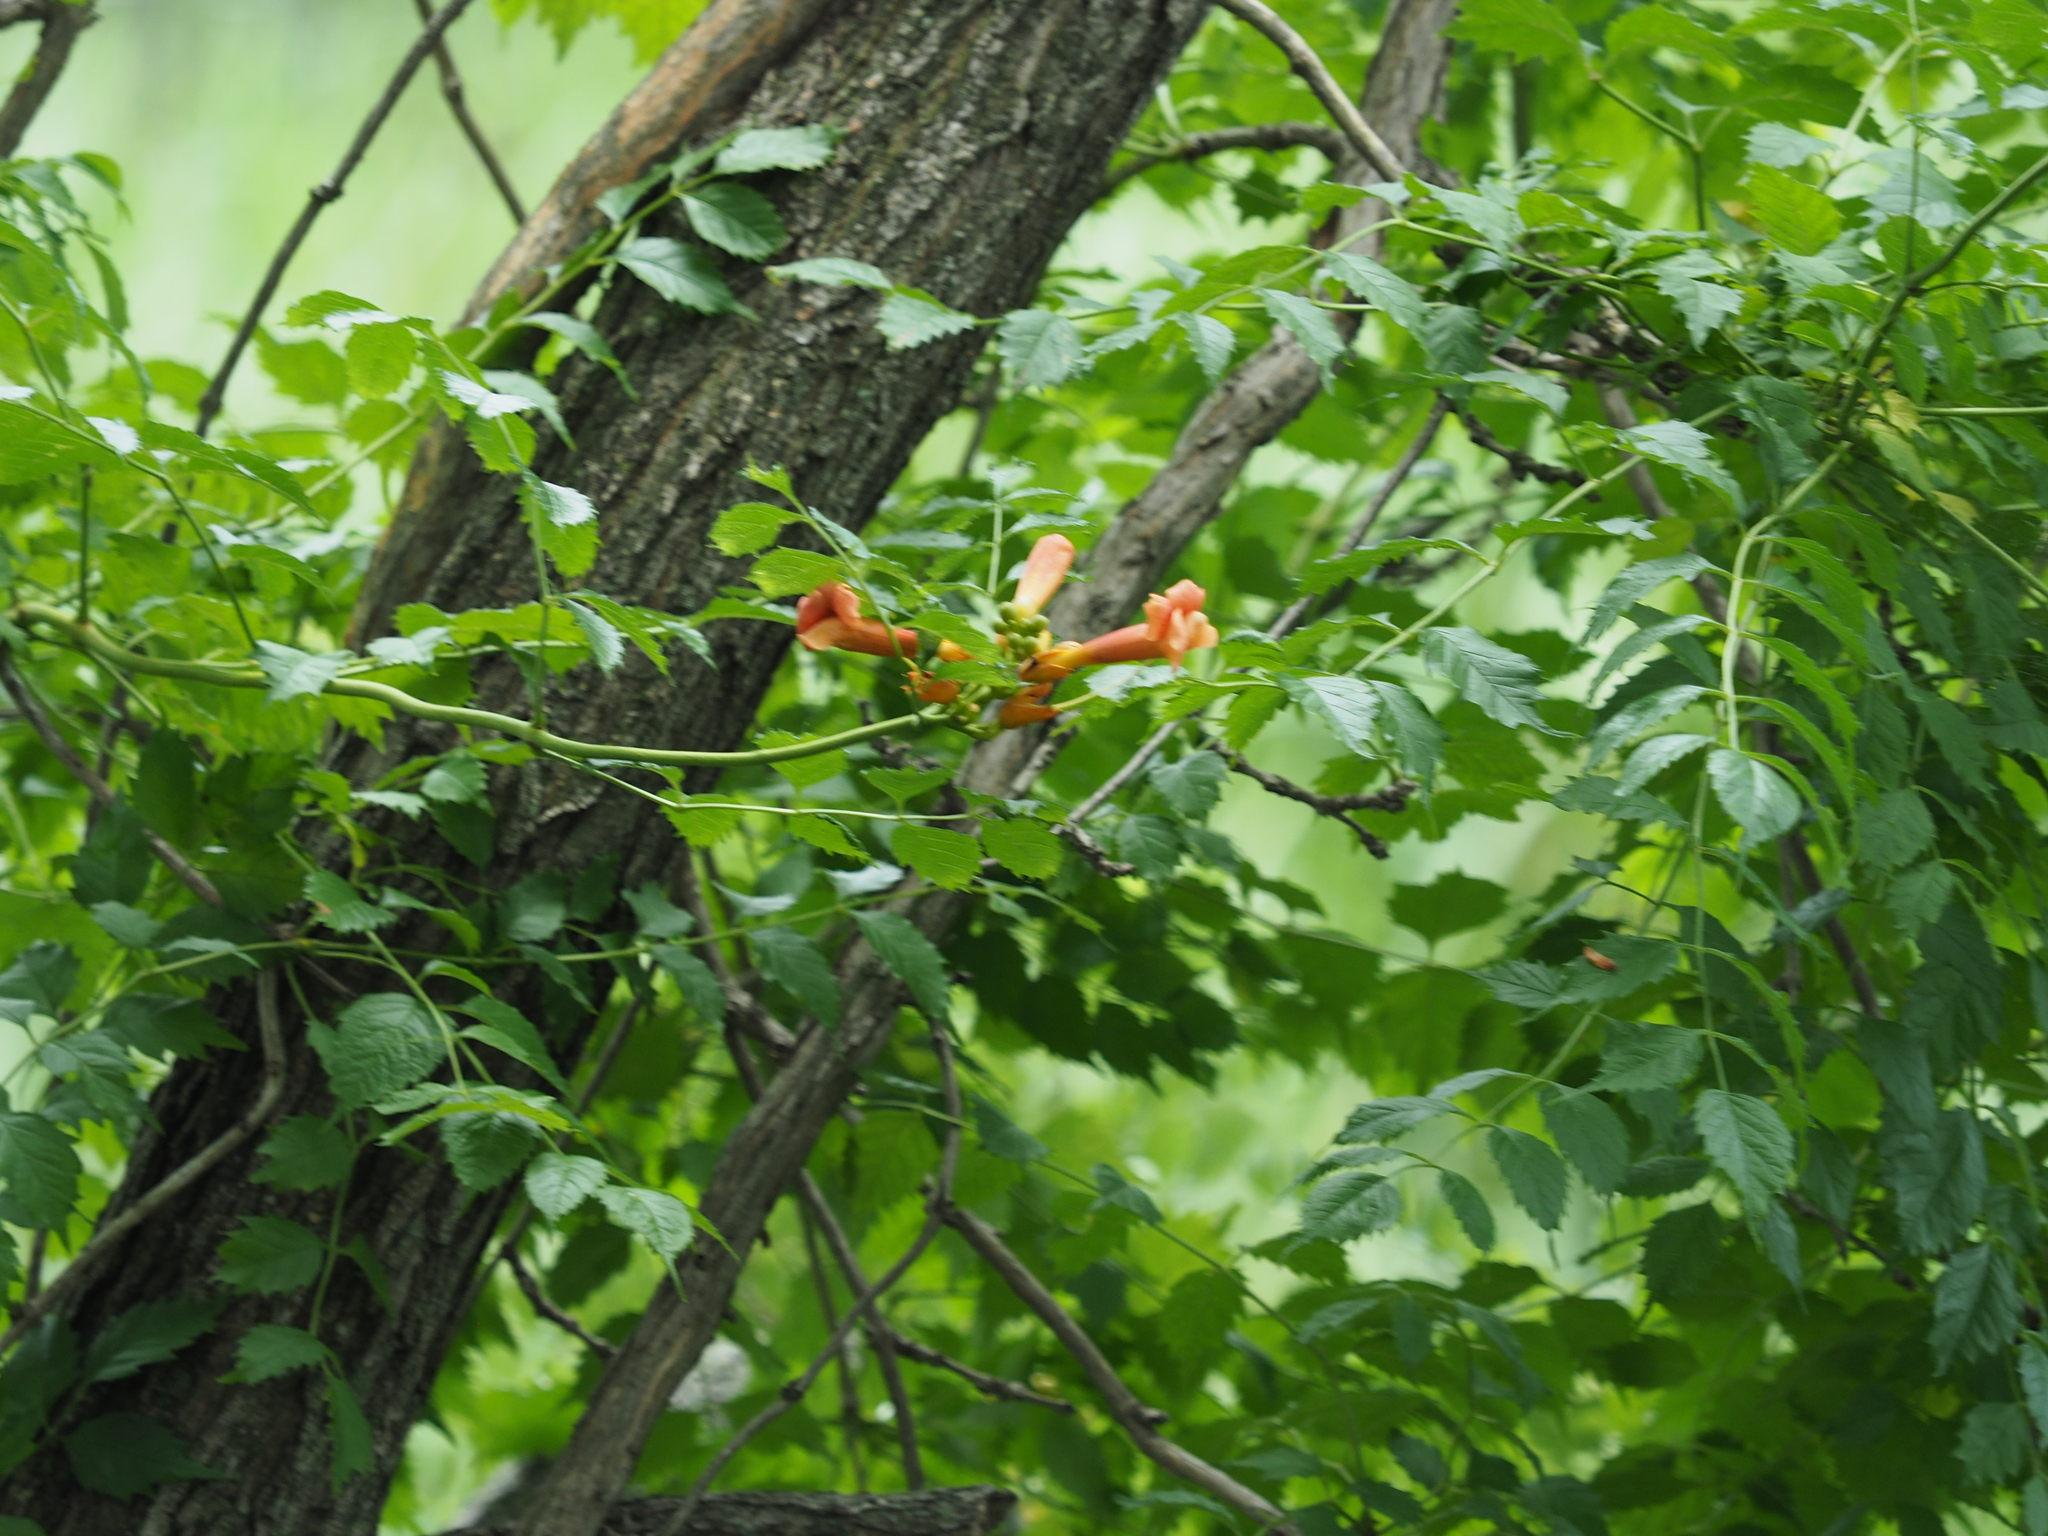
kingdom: Plantae
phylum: Tracheophyta
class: Magnoliopsida
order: Lamiales
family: Bignoniaceae
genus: Campsis
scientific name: Campsis radicans
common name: Trumpet-creeper
